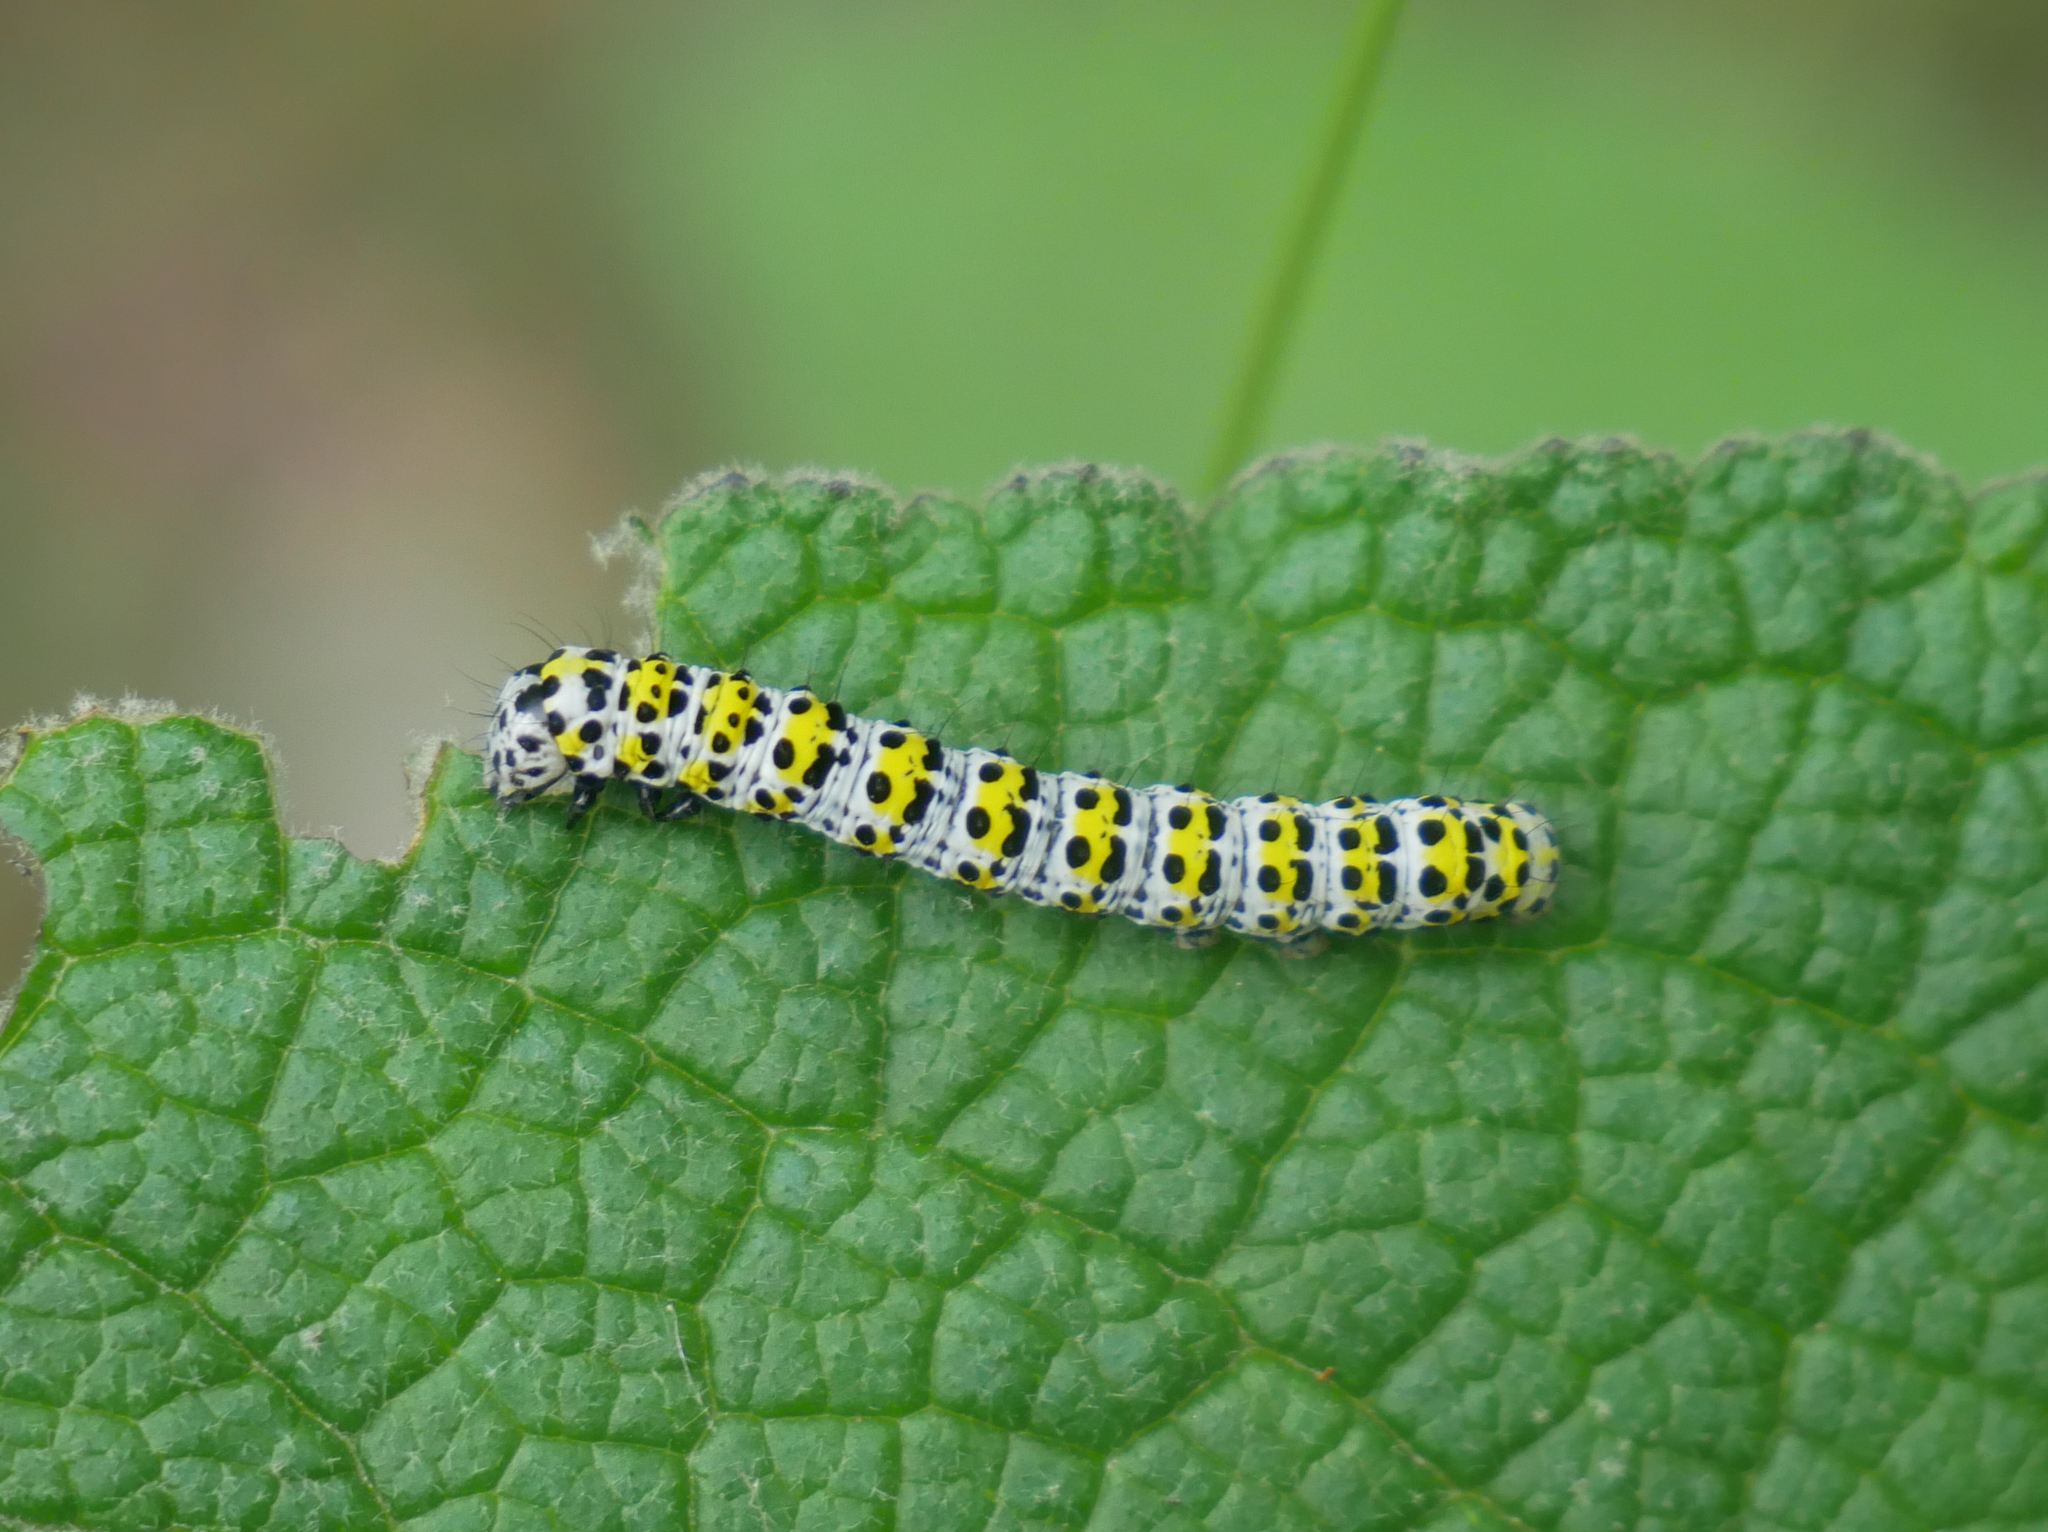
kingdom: Animalia
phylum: Arthropoda
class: Insecta
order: Lepidoptera
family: Noctuidae
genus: Cucullia
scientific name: Cucullia verbasci
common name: Mullein
